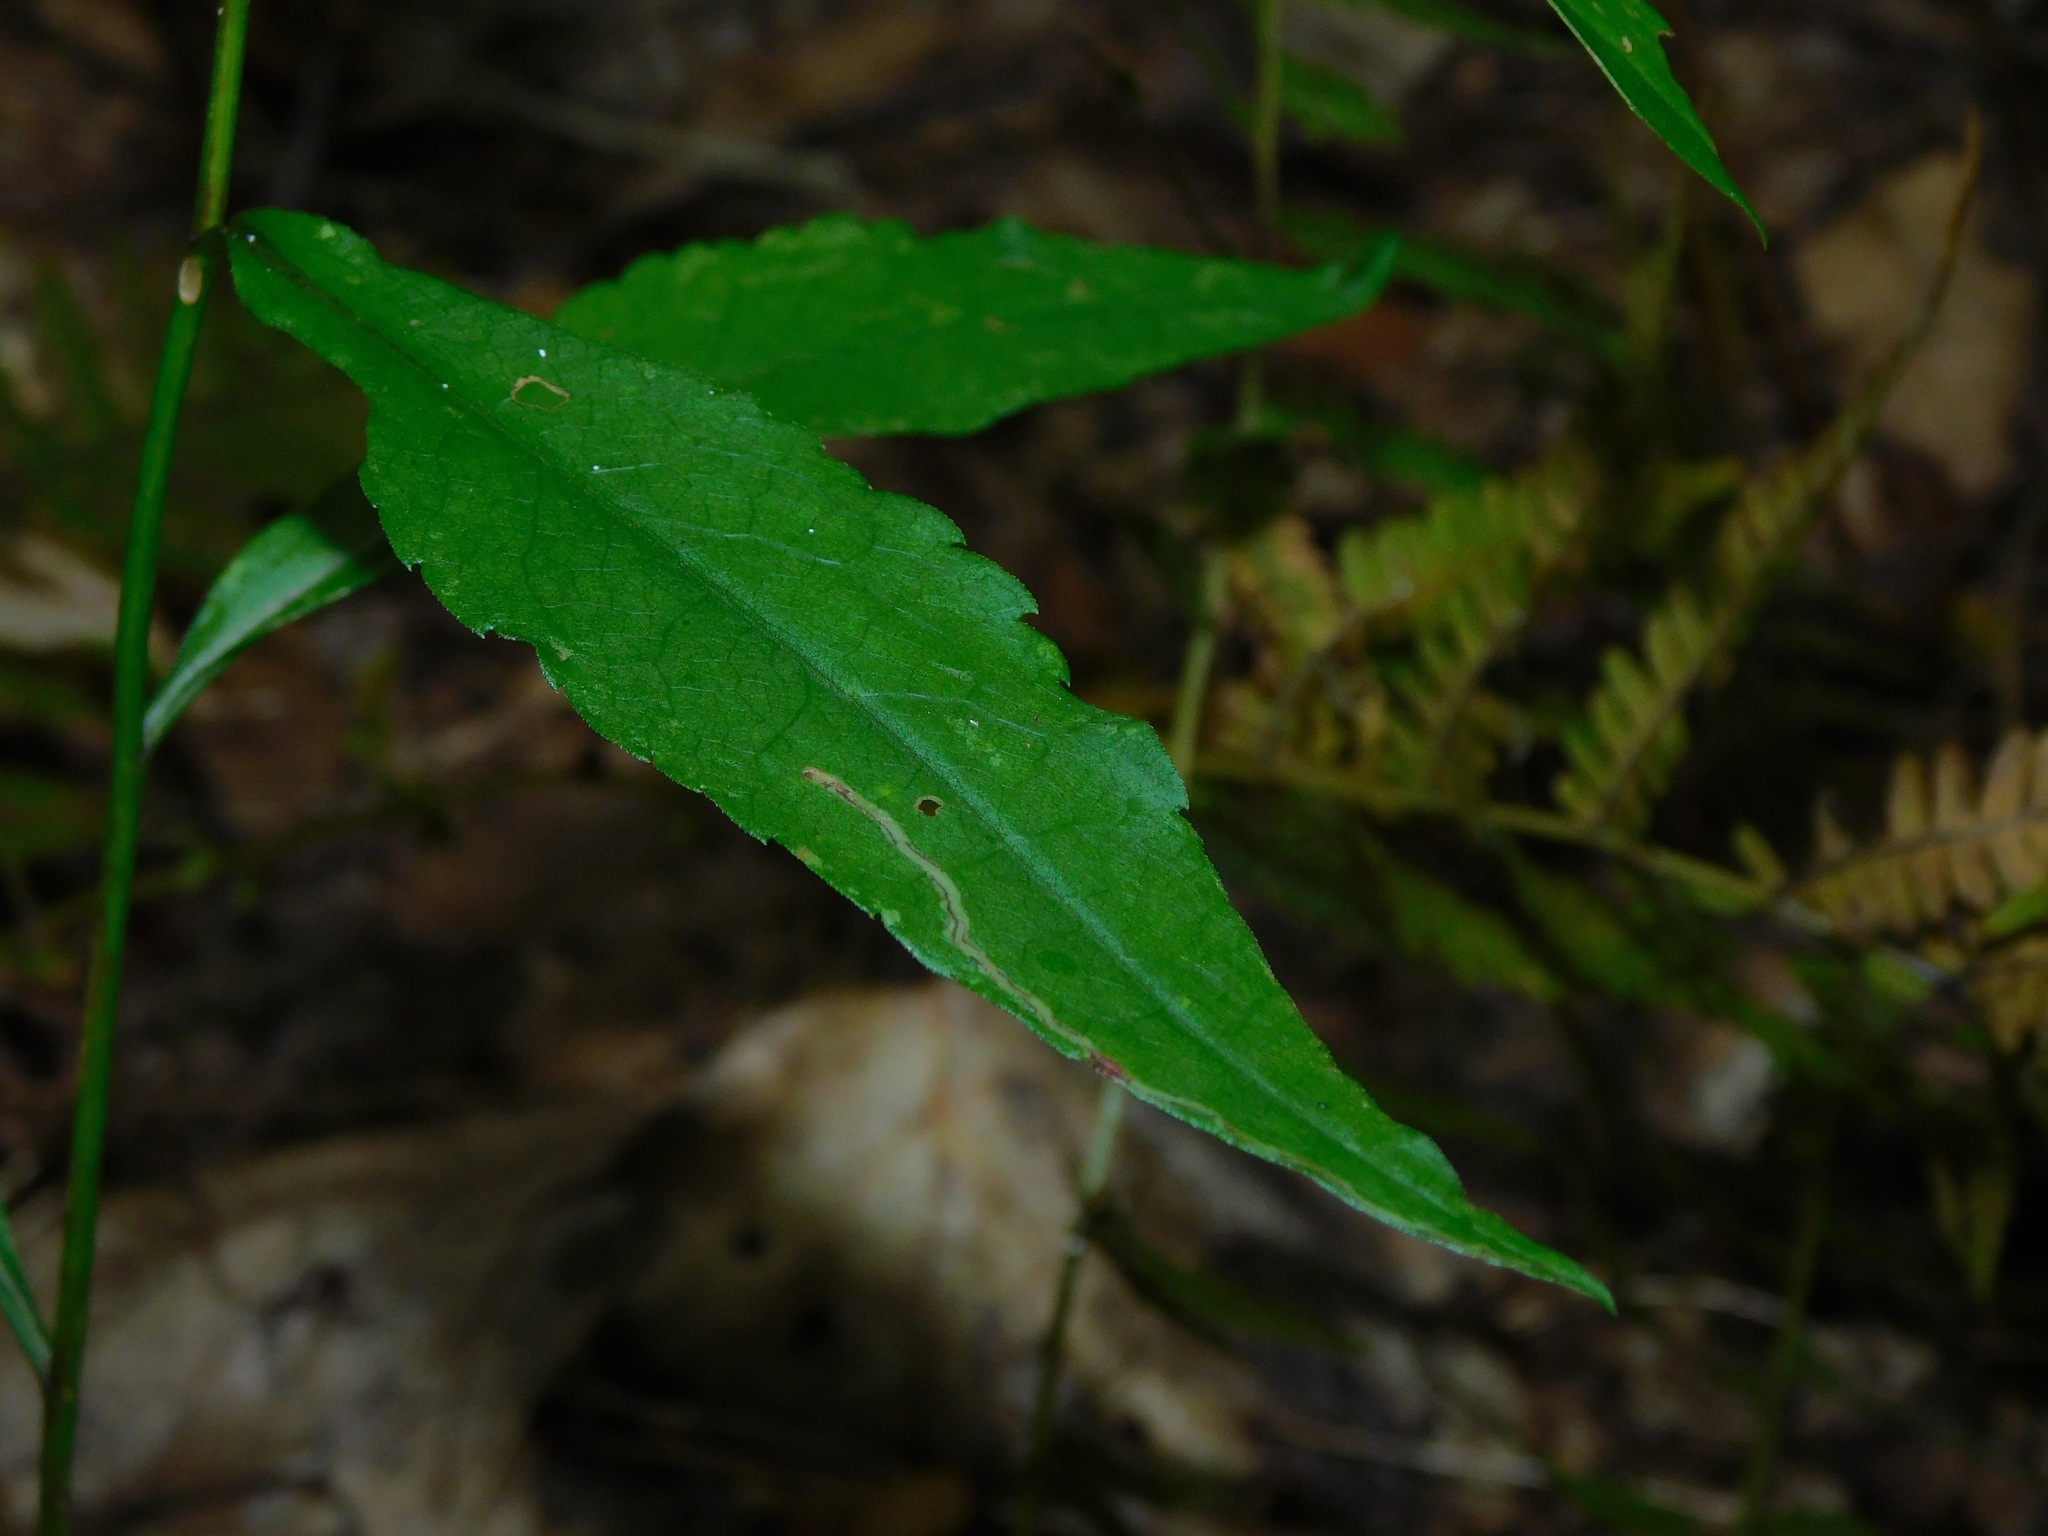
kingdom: Plantae
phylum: Tracheophyta
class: Magnoliopsida
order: Asterales
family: Asteraceae
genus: Symphyotrichum
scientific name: Symphyotrichum retroflexum
